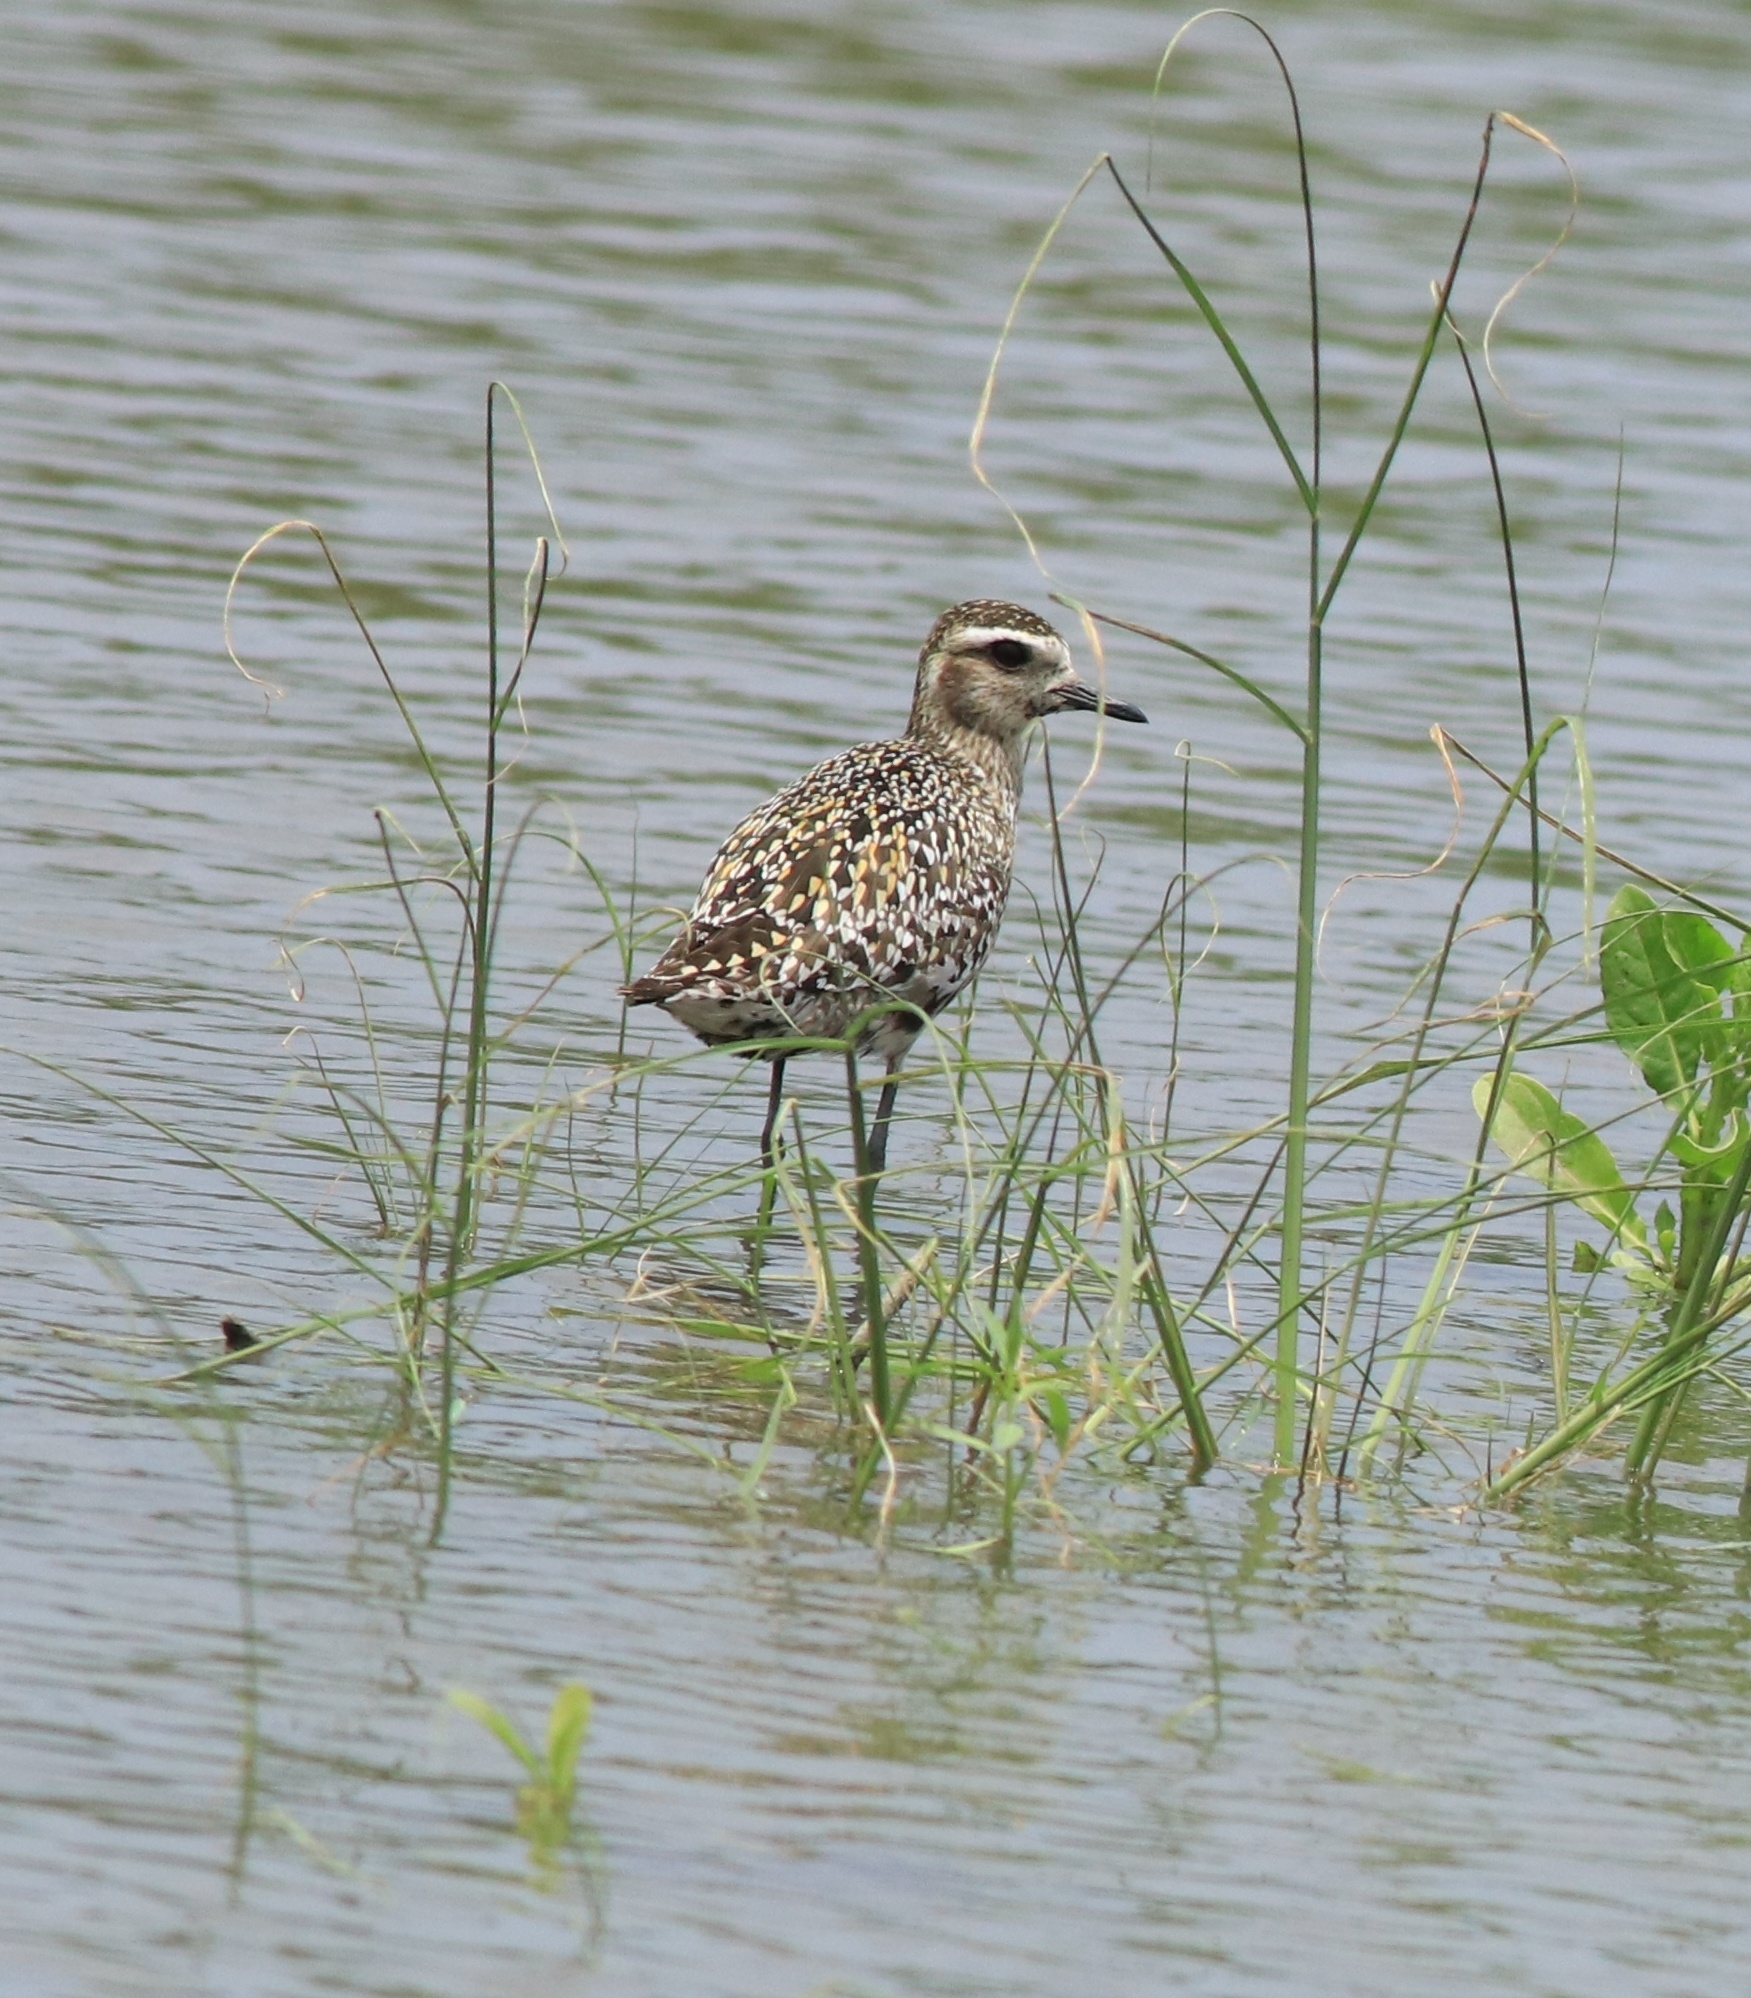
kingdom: Animalia
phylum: Chordata
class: Aves
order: Charadriiformes
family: Charadriidae
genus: Pluvialis
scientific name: Pluvialis fulva
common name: Pacific golden plover
